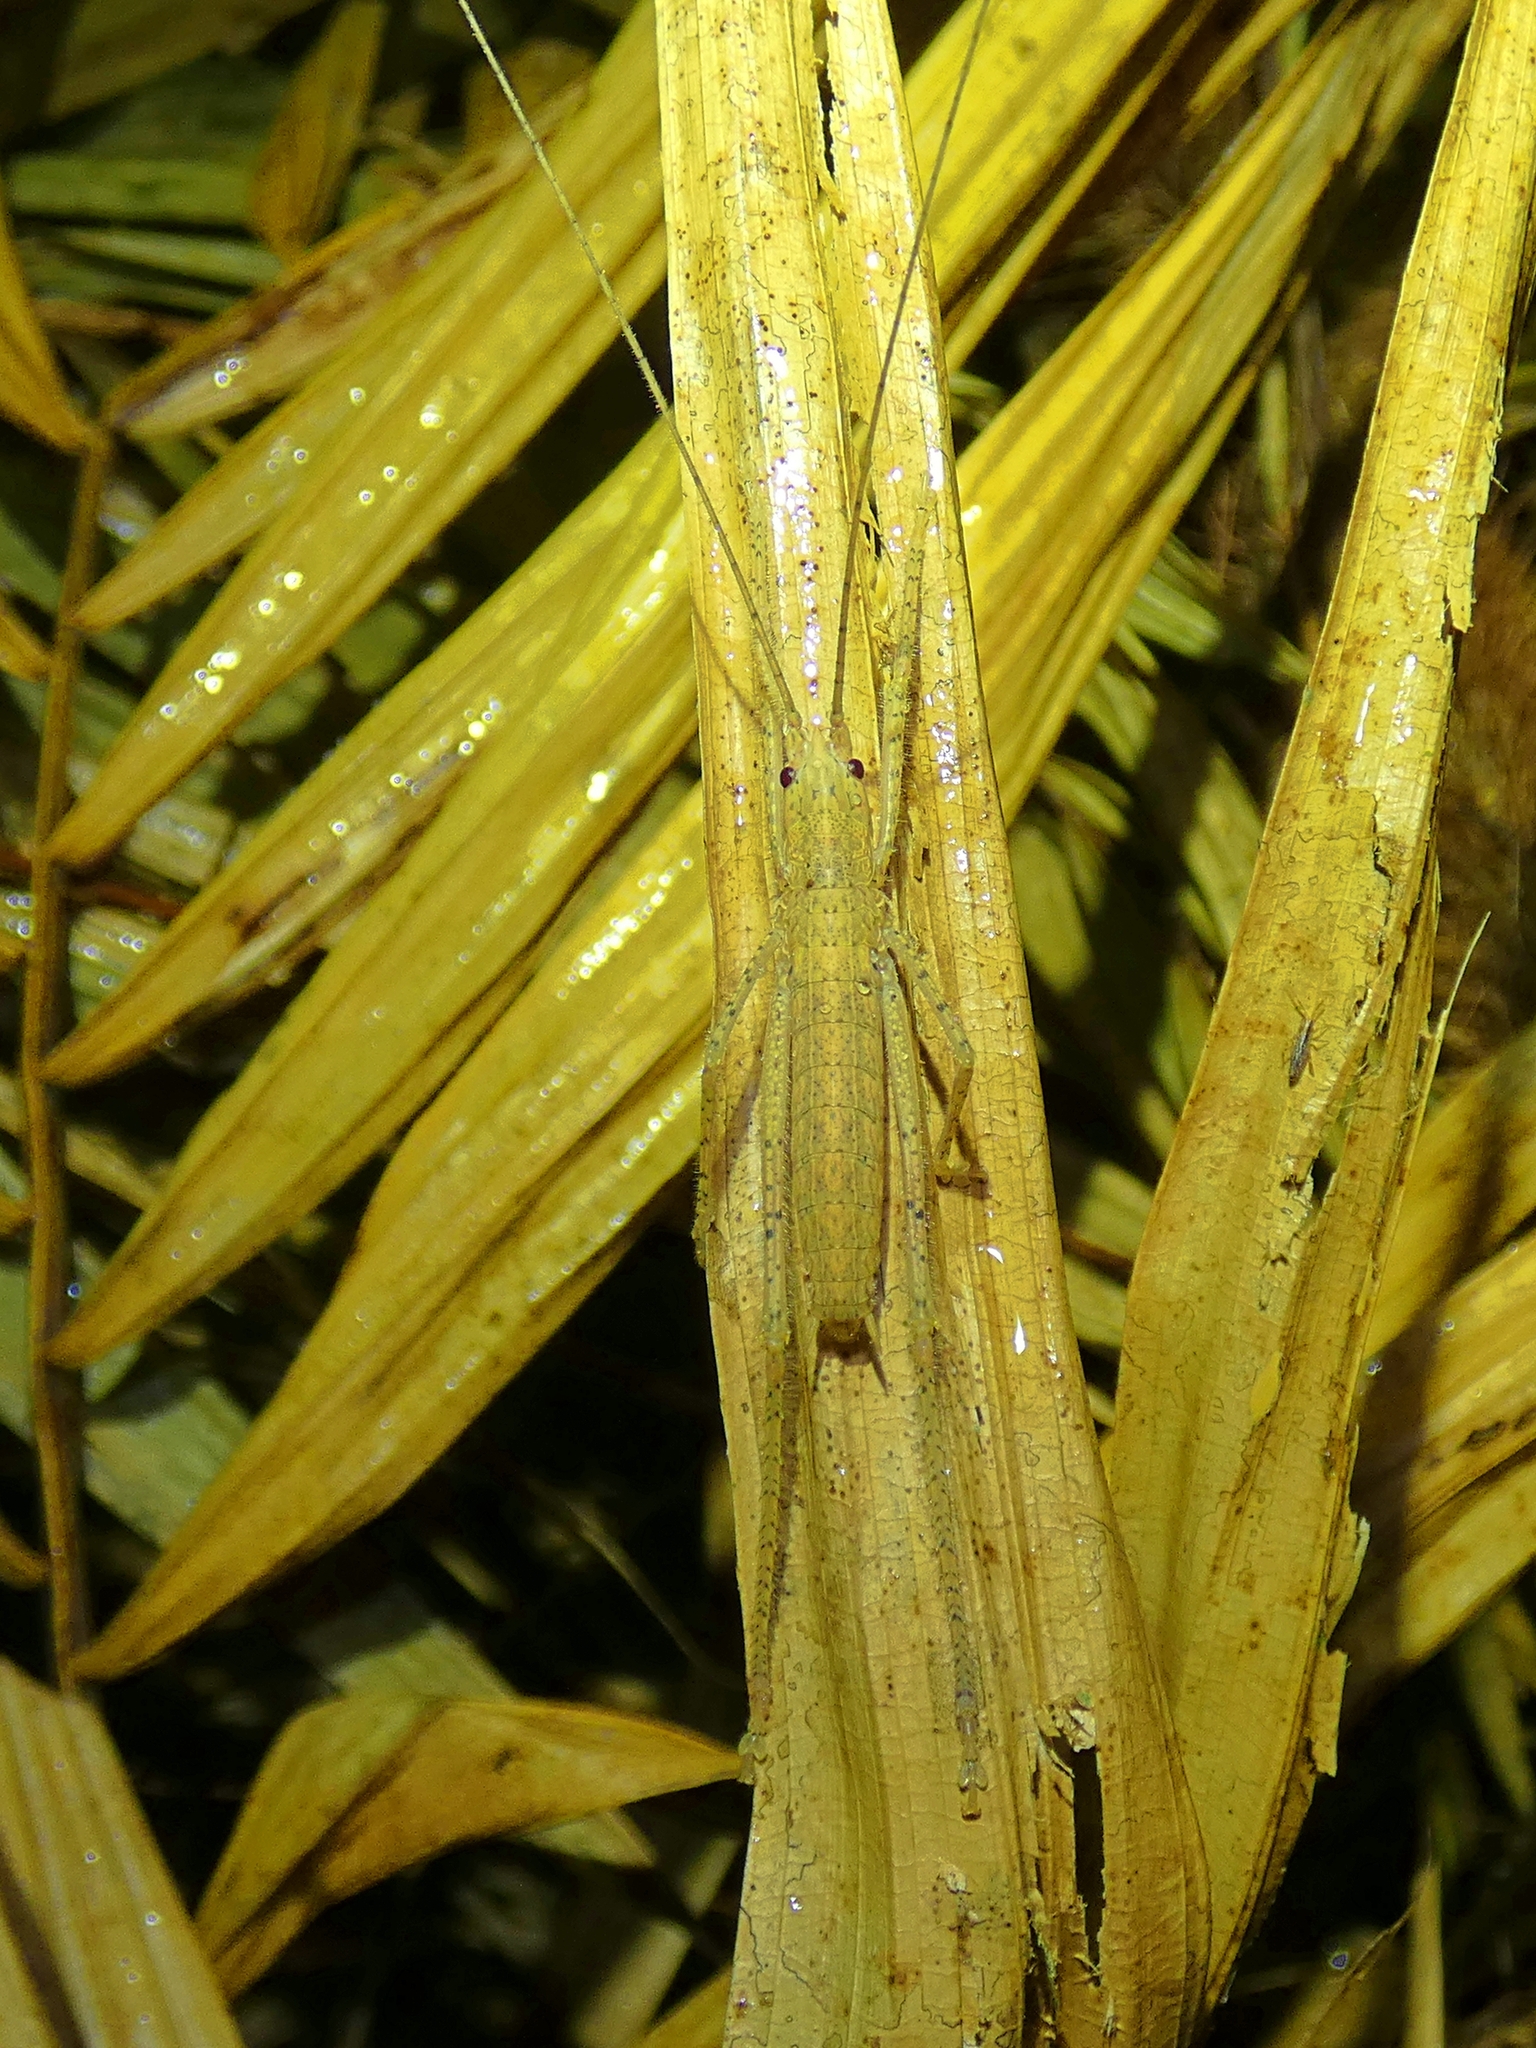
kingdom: Animalia
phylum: Arthropoda
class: Insecta
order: Orthoptera
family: Tettigoniidae
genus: Segestidea
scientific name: Segestidea queenslandica
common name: Queensland palm katydid
